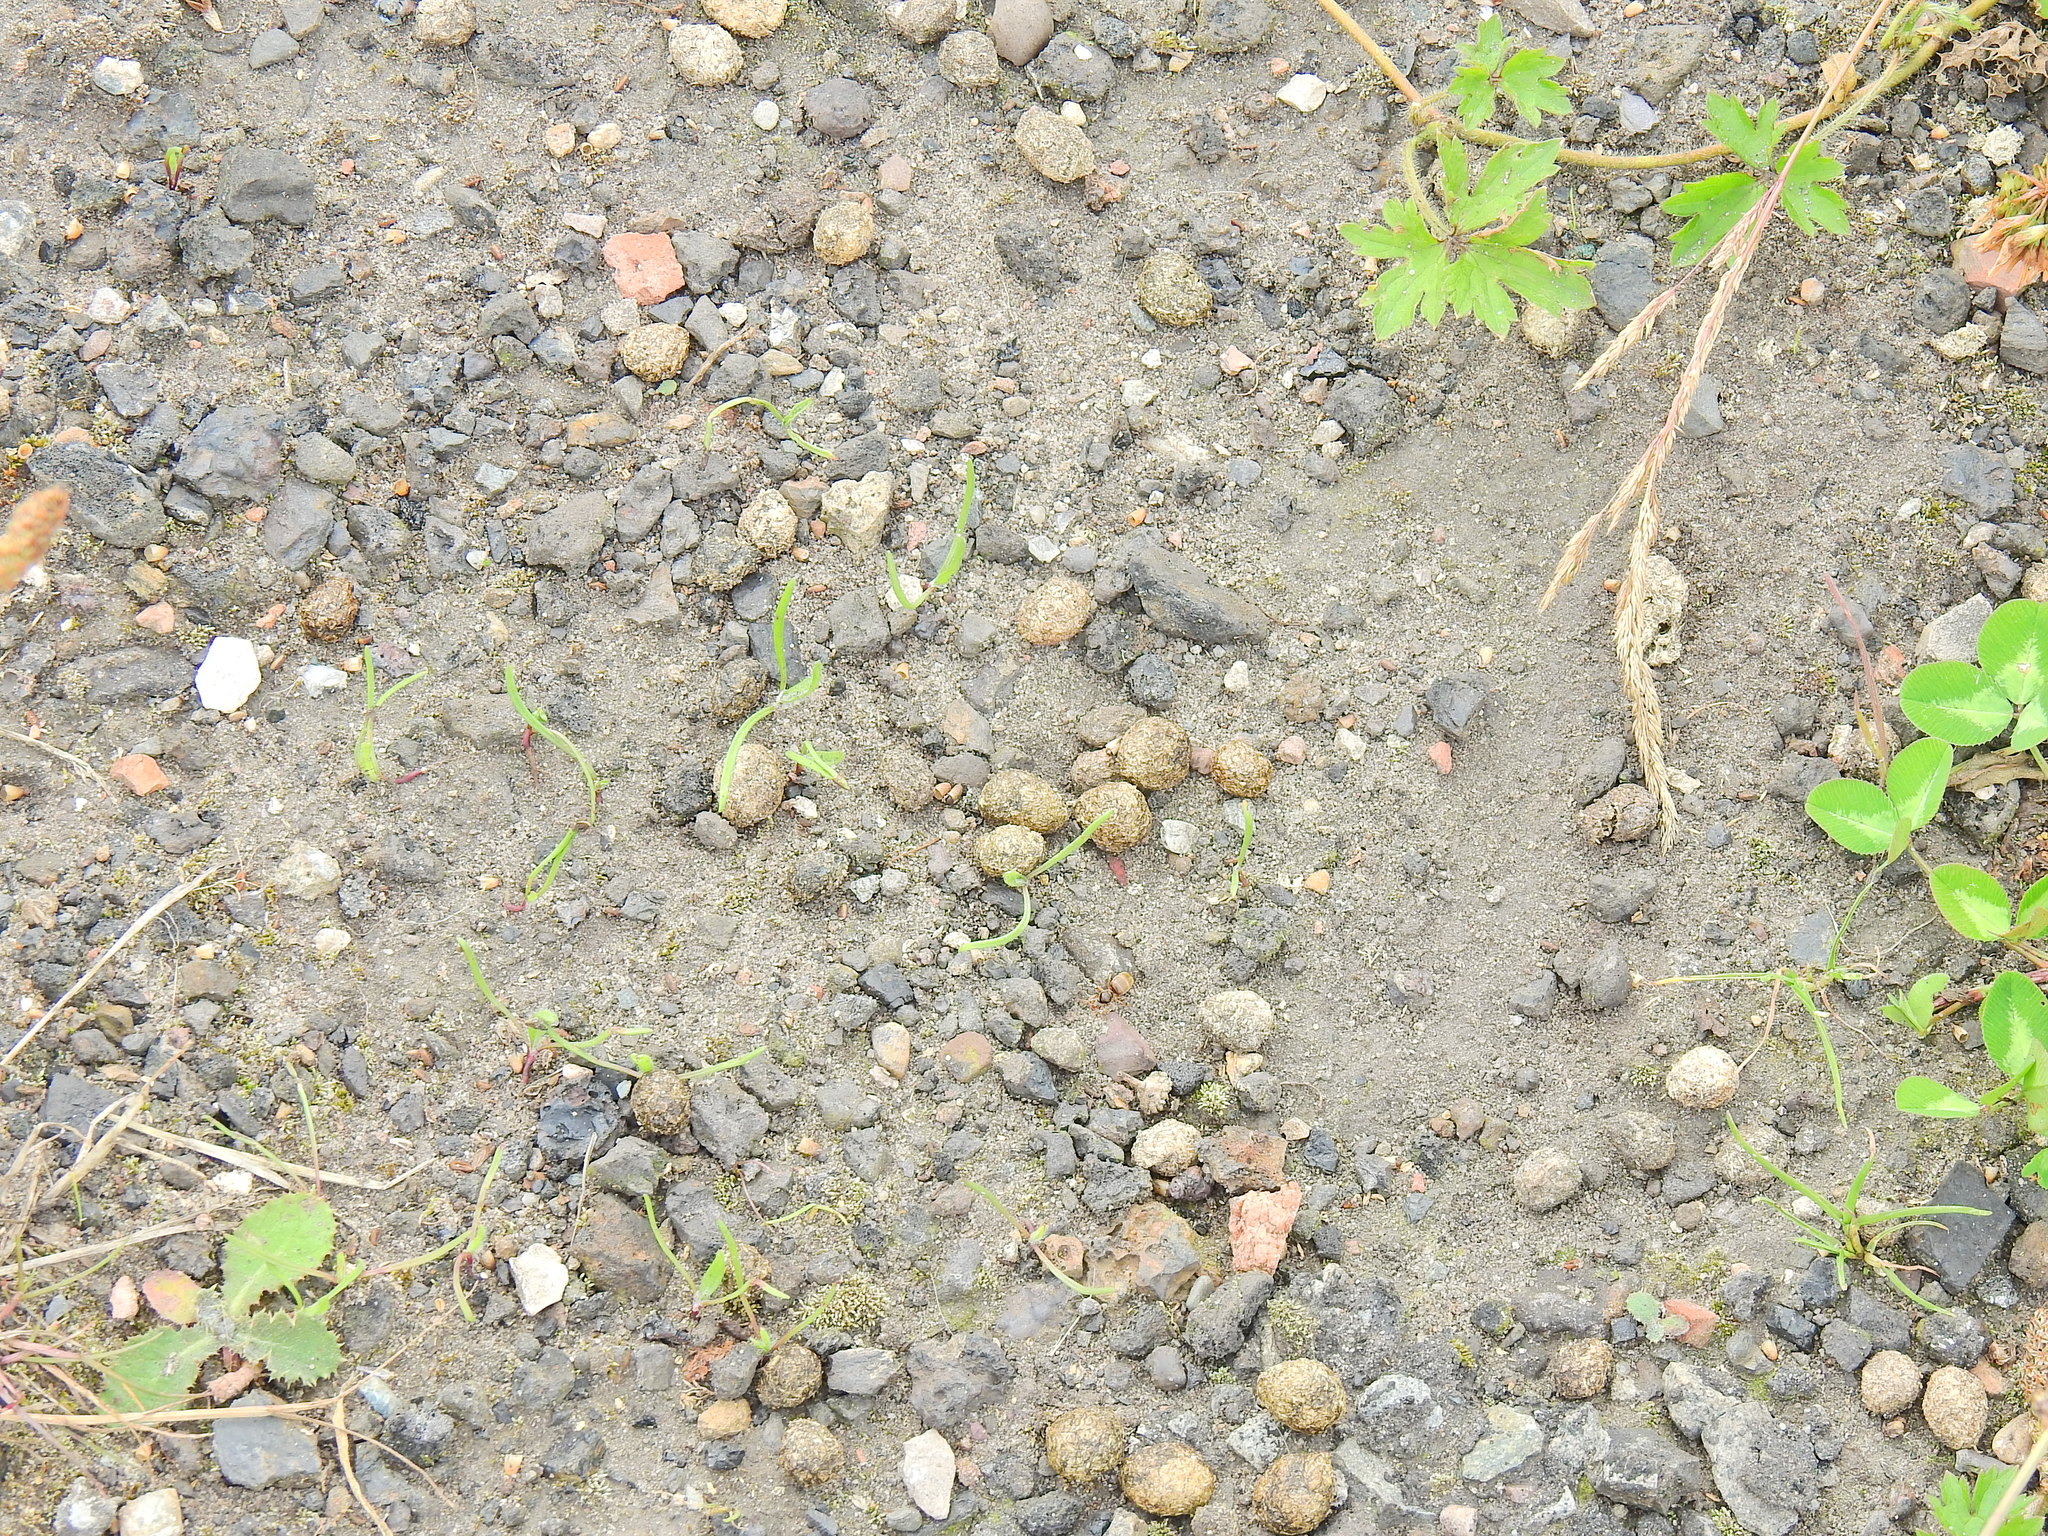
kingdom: Animalia
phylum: Chordata
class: Mammalia
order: Lagomorpha
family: Leporidae
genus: Oryctolagus
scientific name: Oryctolagus cuniculus
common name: European rabbit
